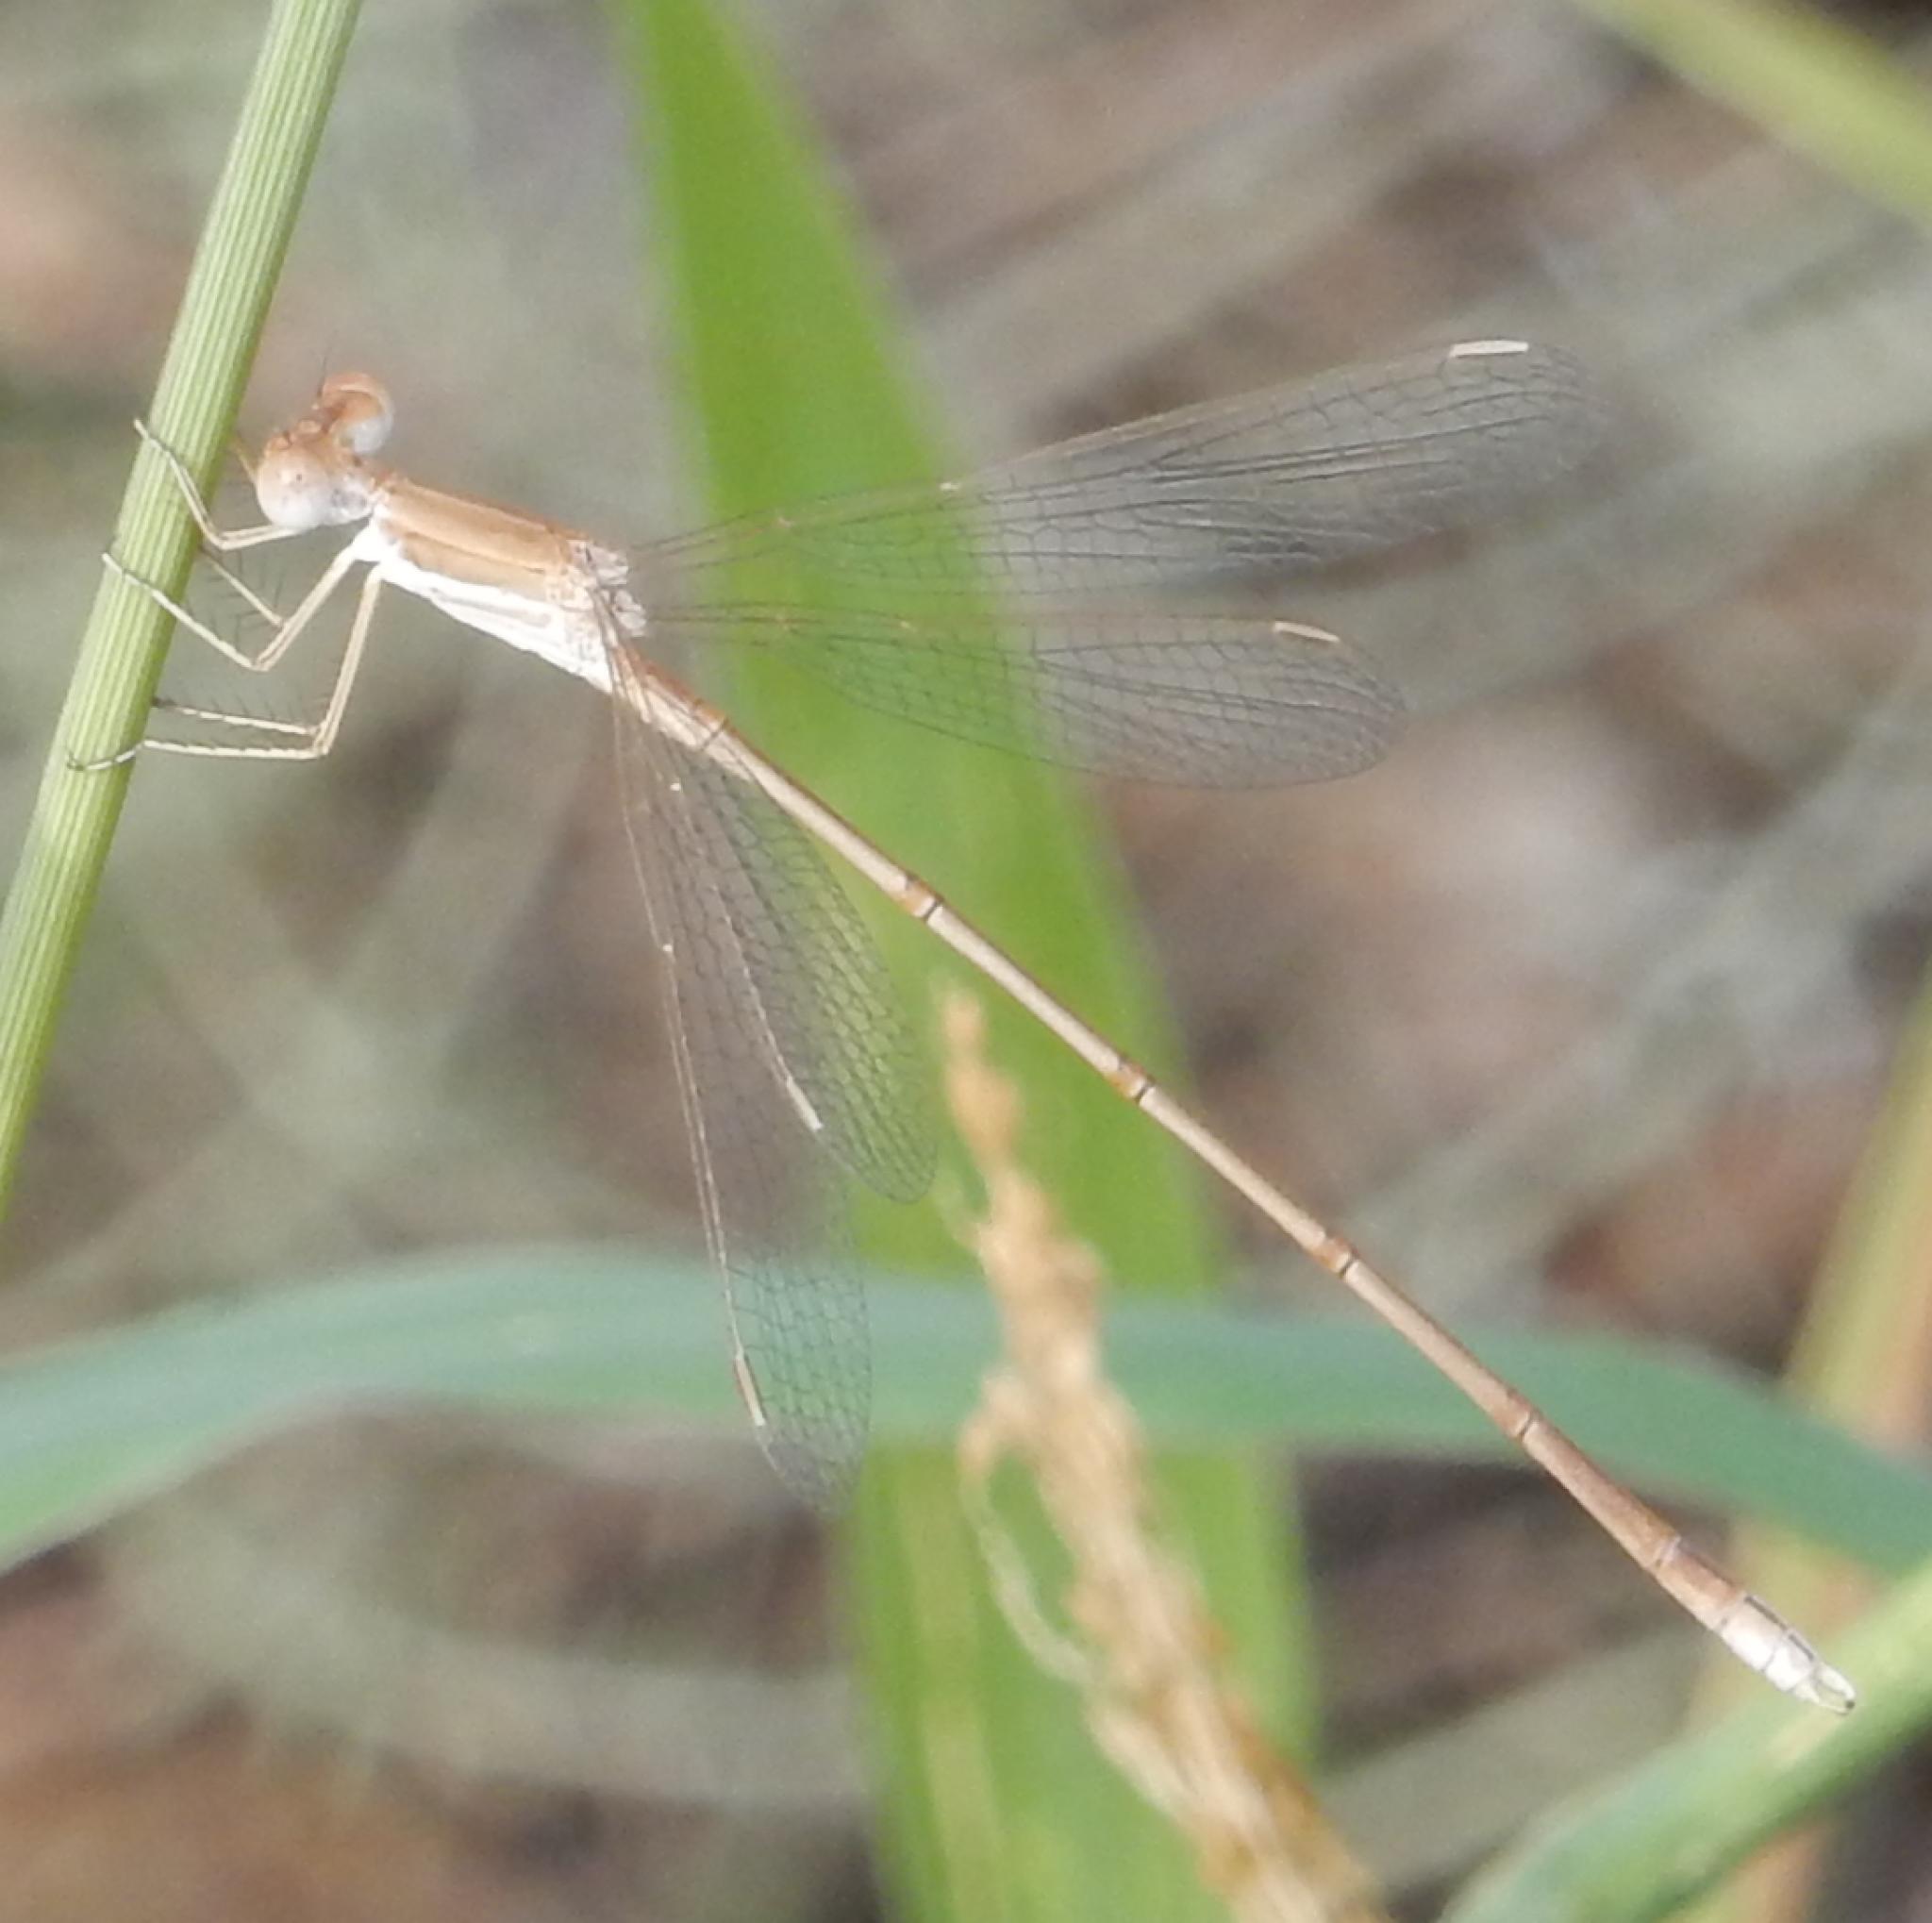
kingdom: Animalia
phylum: Arthropoda
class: Insecta
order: Odonata
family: Lestidae
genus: Lestes
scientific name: Lestes pallidus
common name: Pallid spreadwing
